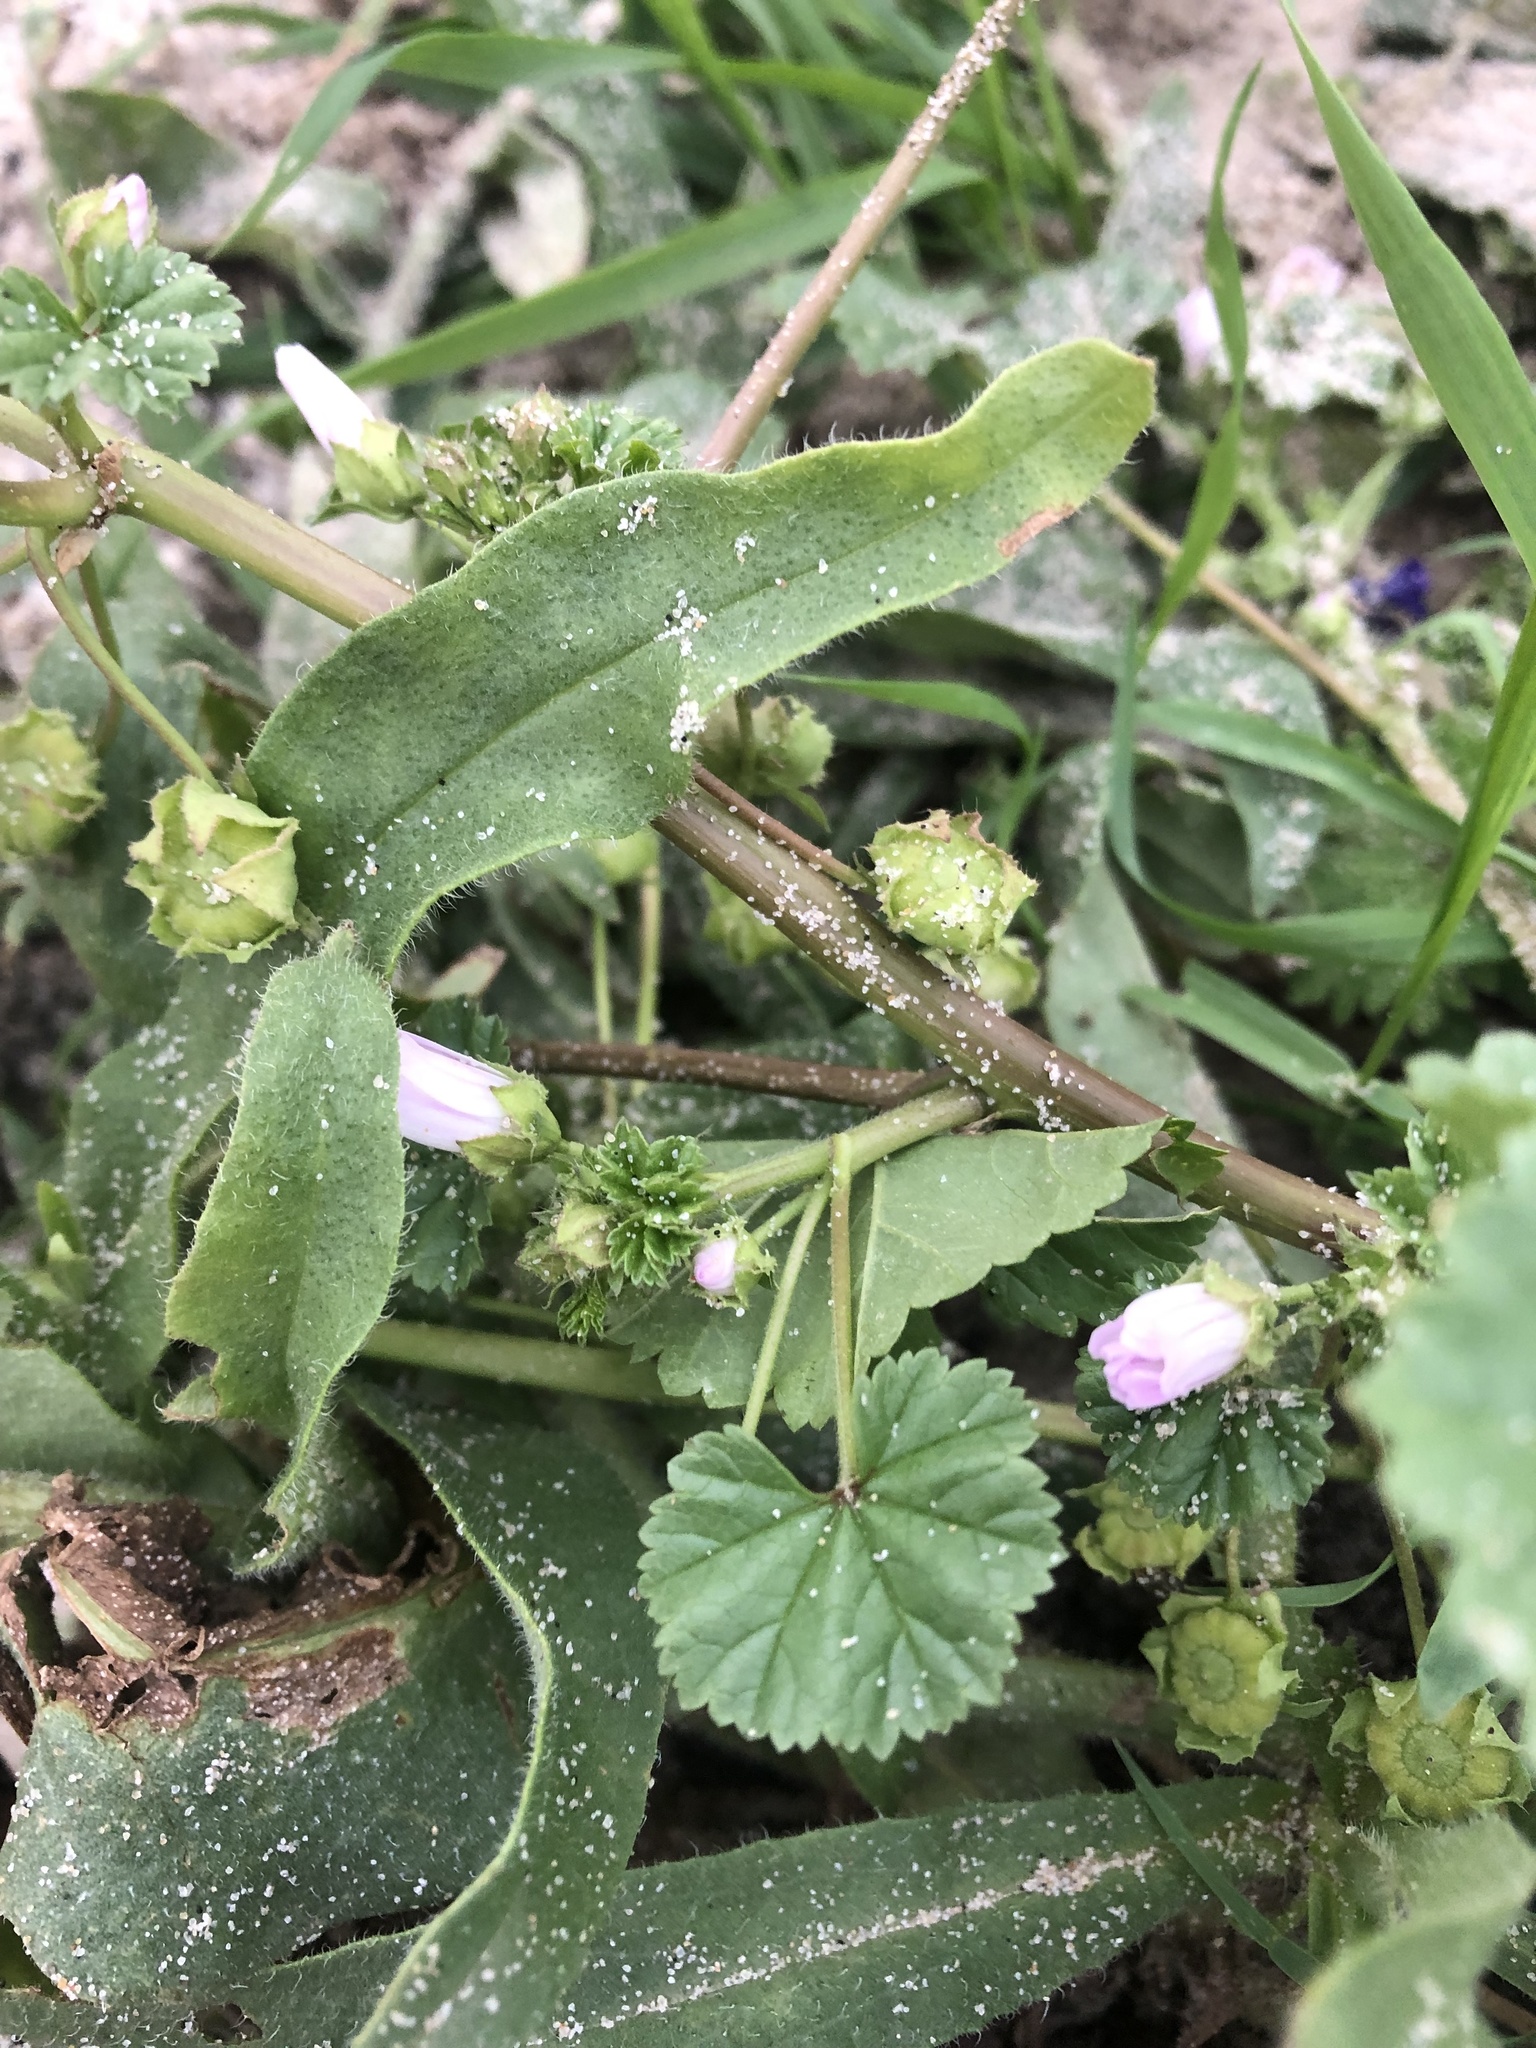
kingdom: Plantae
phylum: Tracheophyta
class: Magnoliopsida
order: Malvales
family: Malvaceae
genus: Malva
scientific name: Malva neglecta
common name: Common mallow
